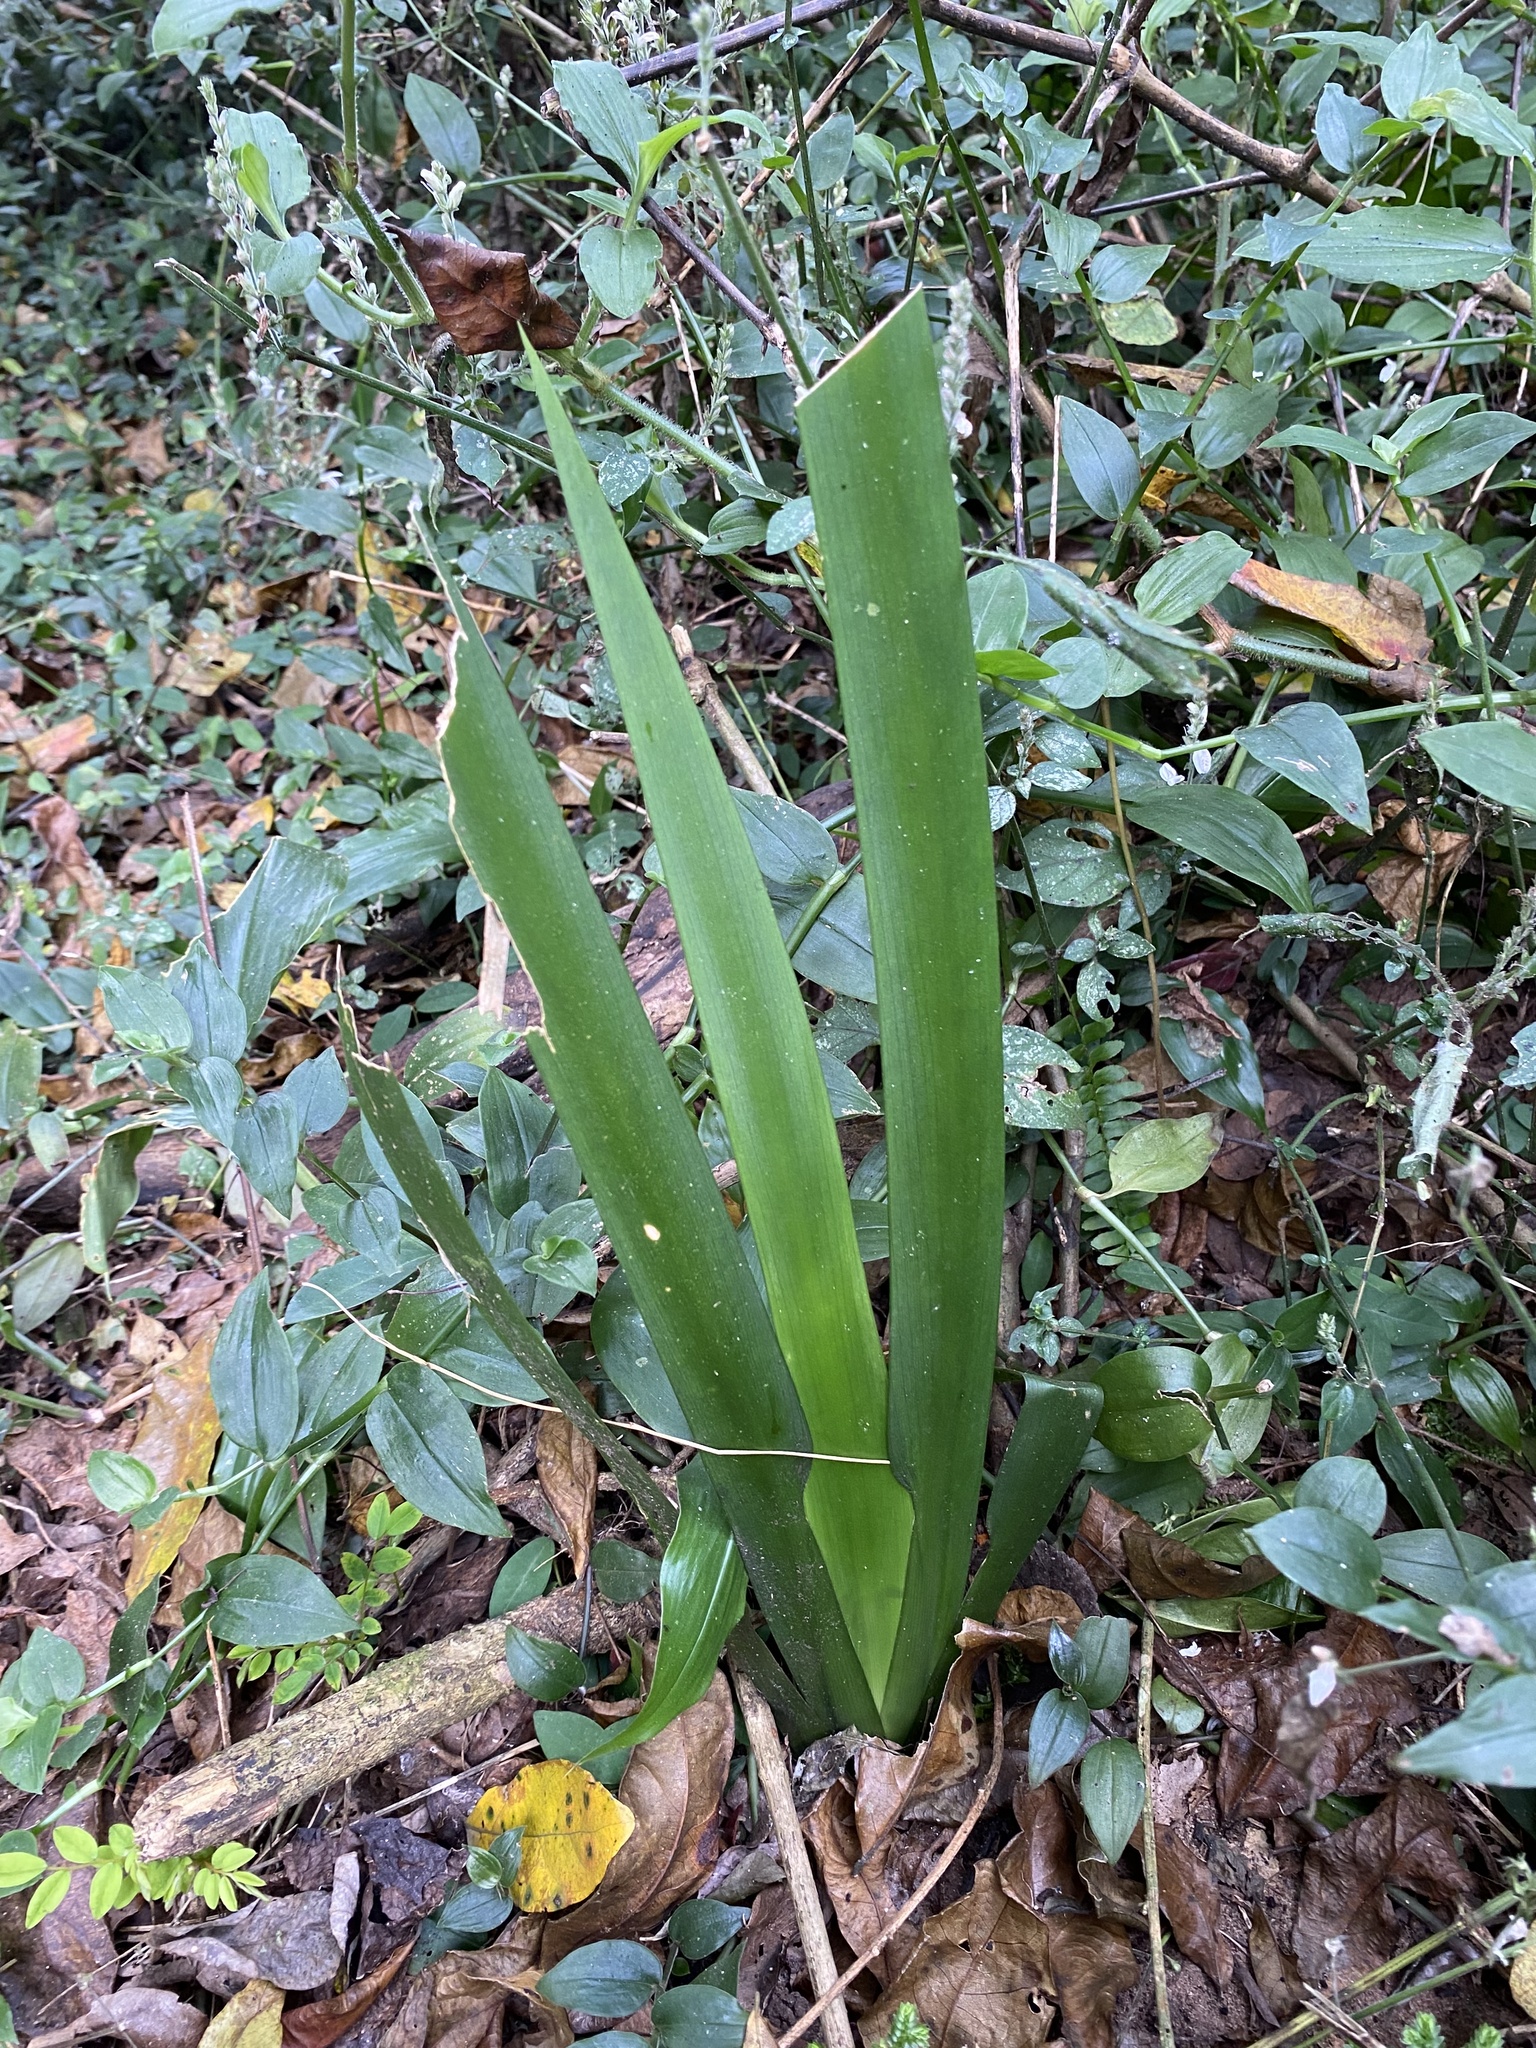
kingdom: Plantae
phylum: Tracheophyta
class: Liliopsida
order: Asparagales
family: Iridaceae
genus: Dietes
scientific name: Dietes butcheriana
